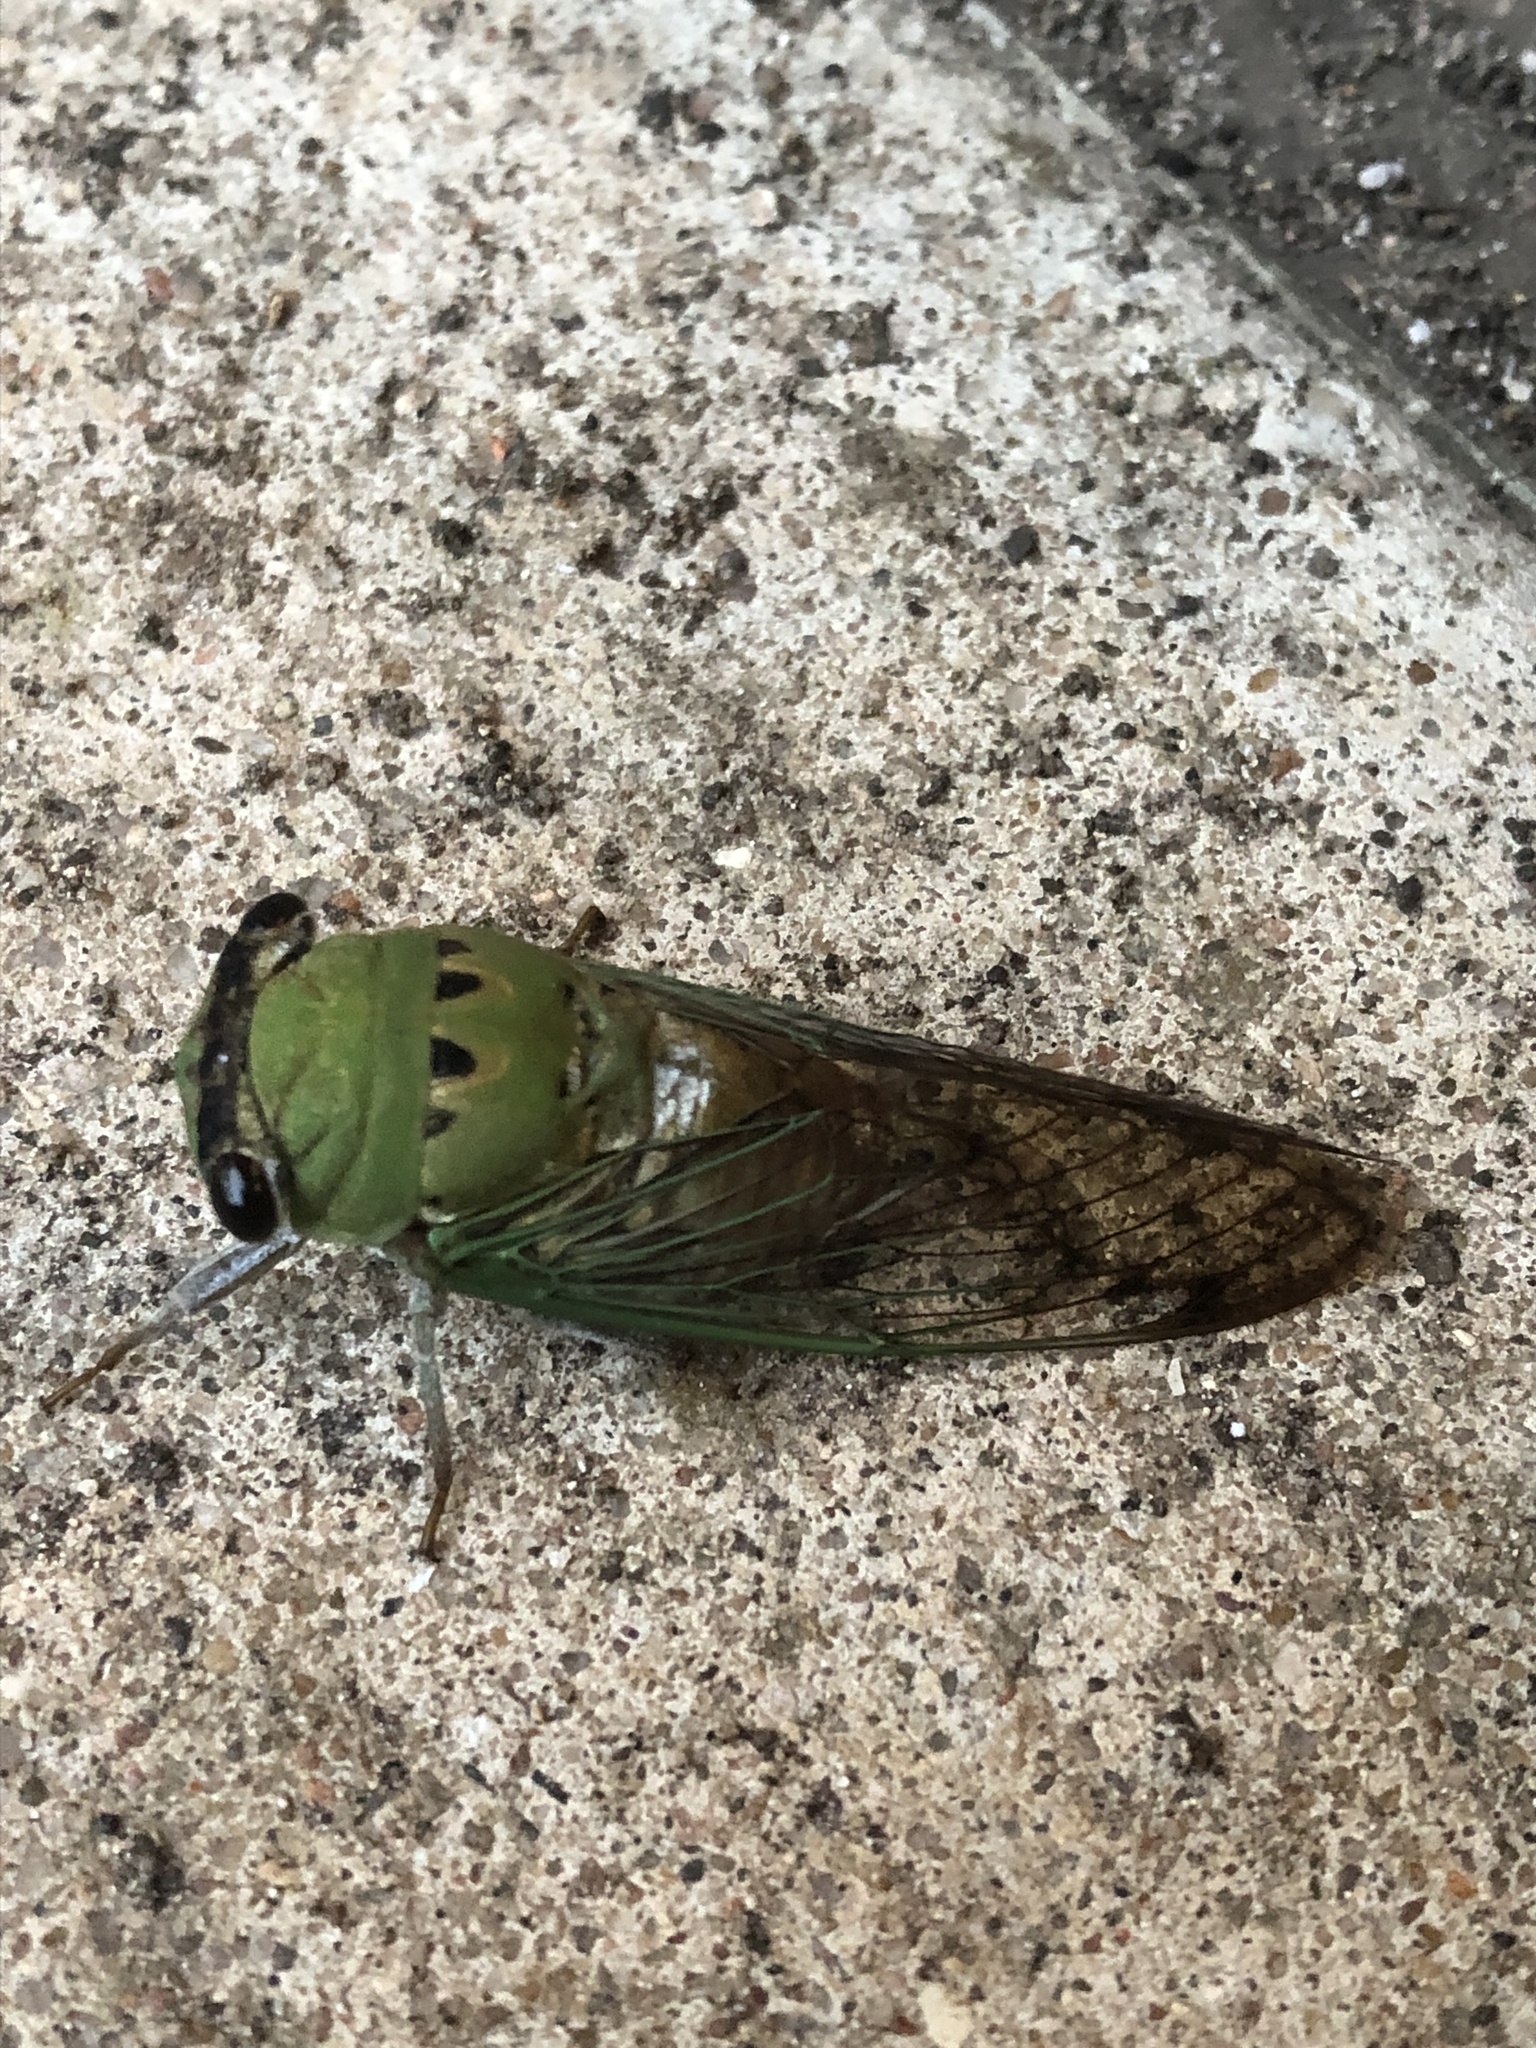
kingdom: Animalia
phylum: Arthropoda
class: Insecta
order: Hemiptera
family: Cicadidae
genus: Neotibicen
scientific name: Neotibicen superbus
